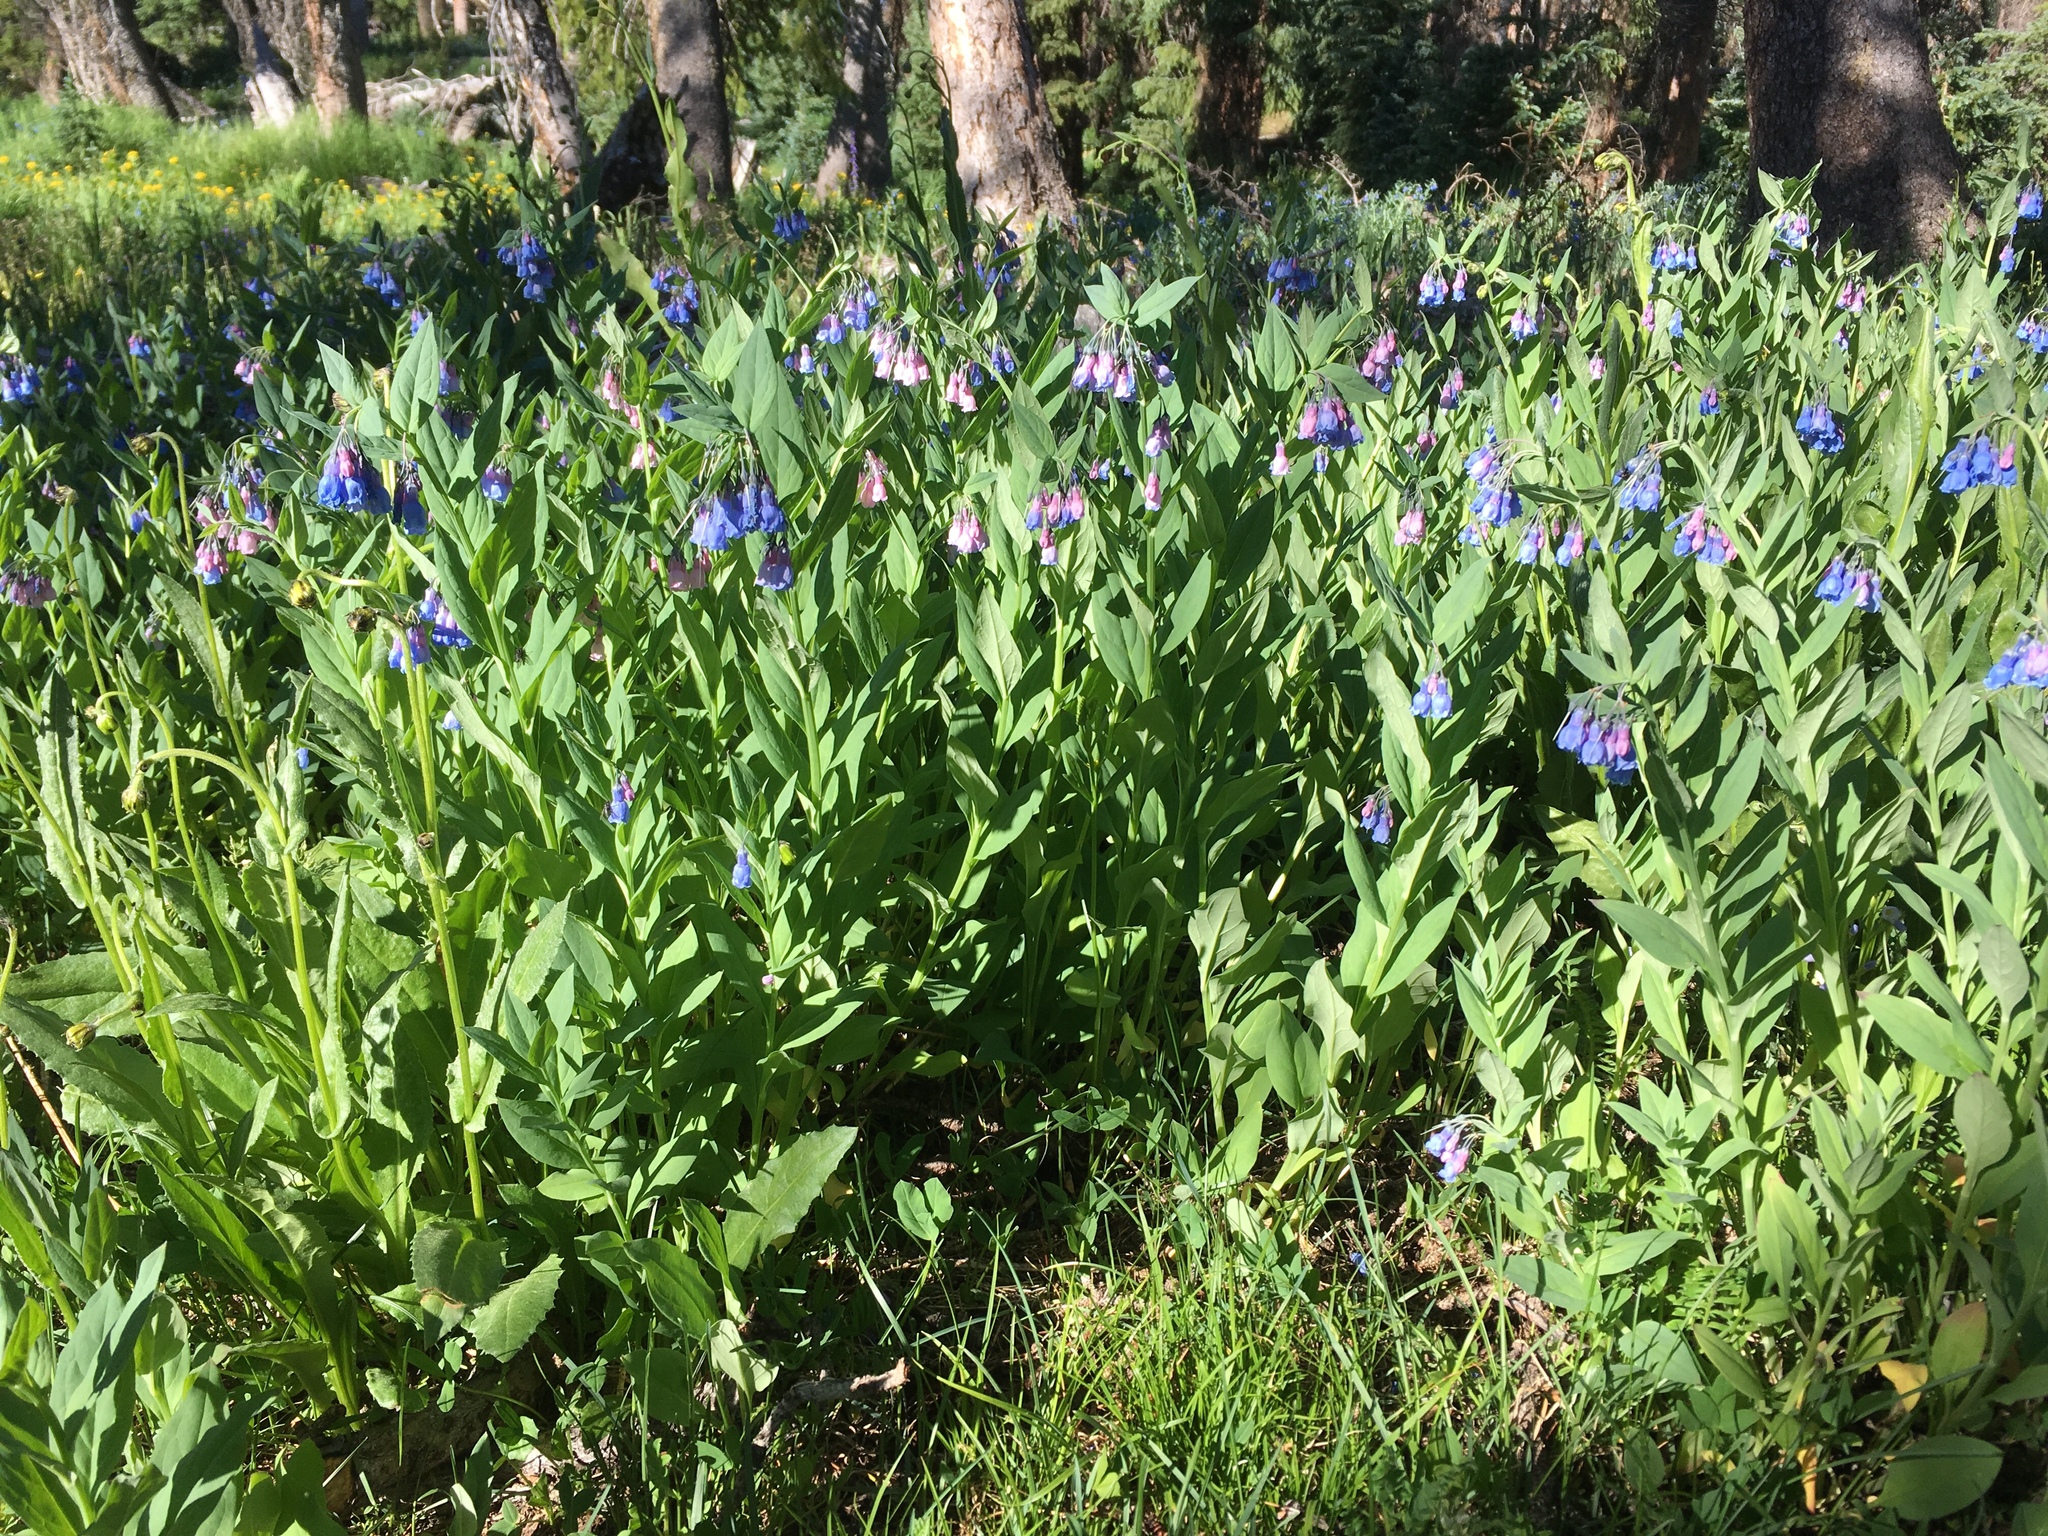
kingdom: Plantae
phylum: Tracheophyta
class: Magnoliopsida
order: Boraginales
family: Boraginaceae
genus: Mertensia
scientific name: Mertensia ciliata
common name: Tall chiming-bells
